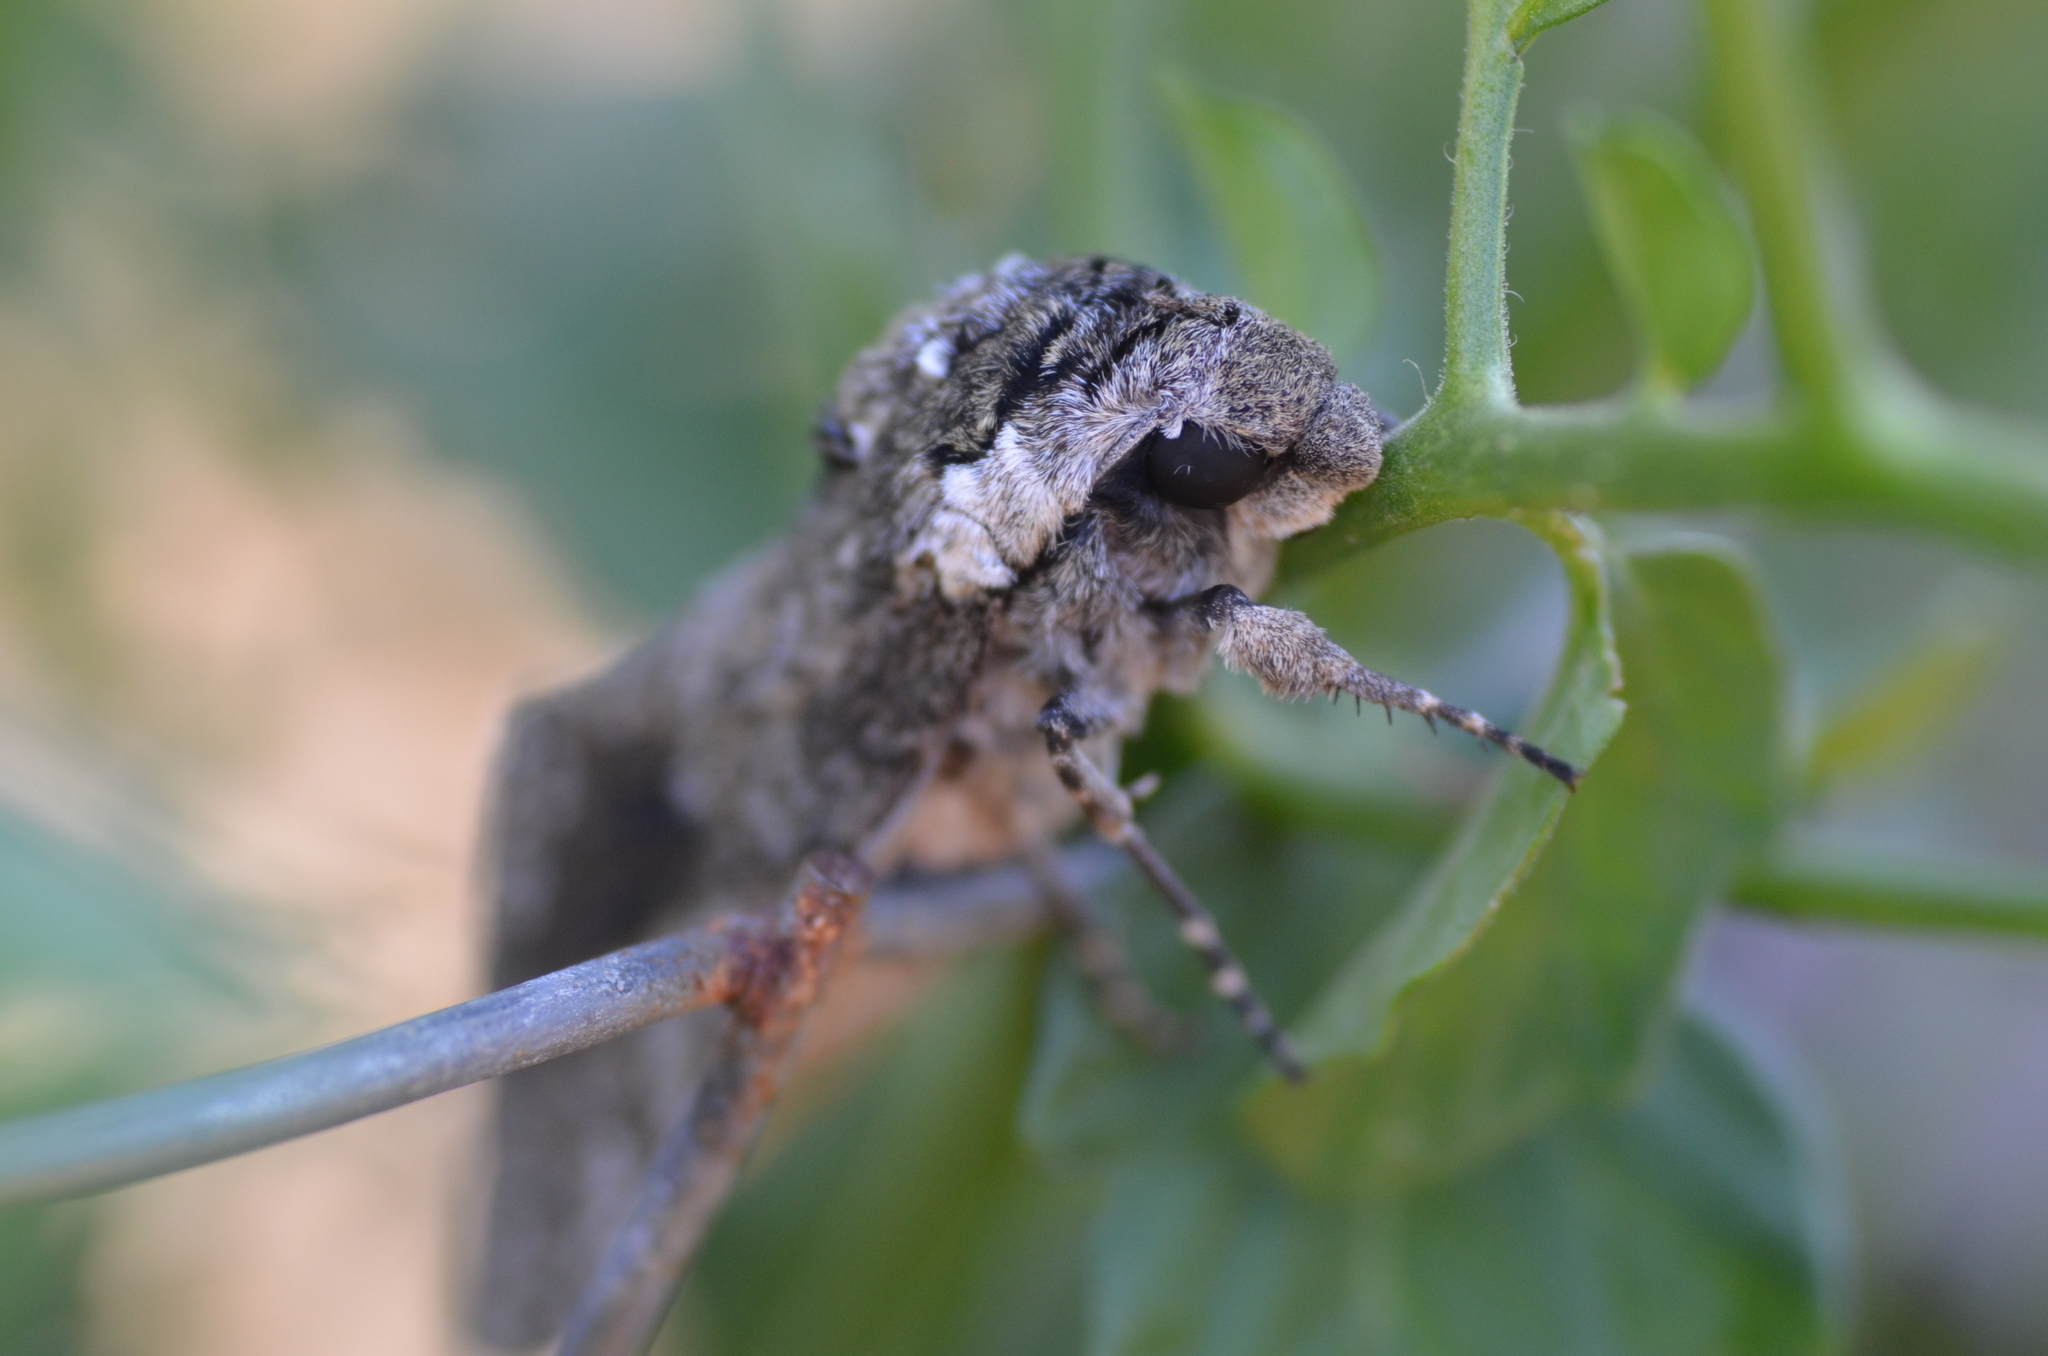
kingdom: Animalia
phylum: Arthropoda
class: Insecta
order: Lepidoptera
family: Sphingidae
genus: Manduca
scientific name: Manduca sexta
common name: Carolina sphinx
